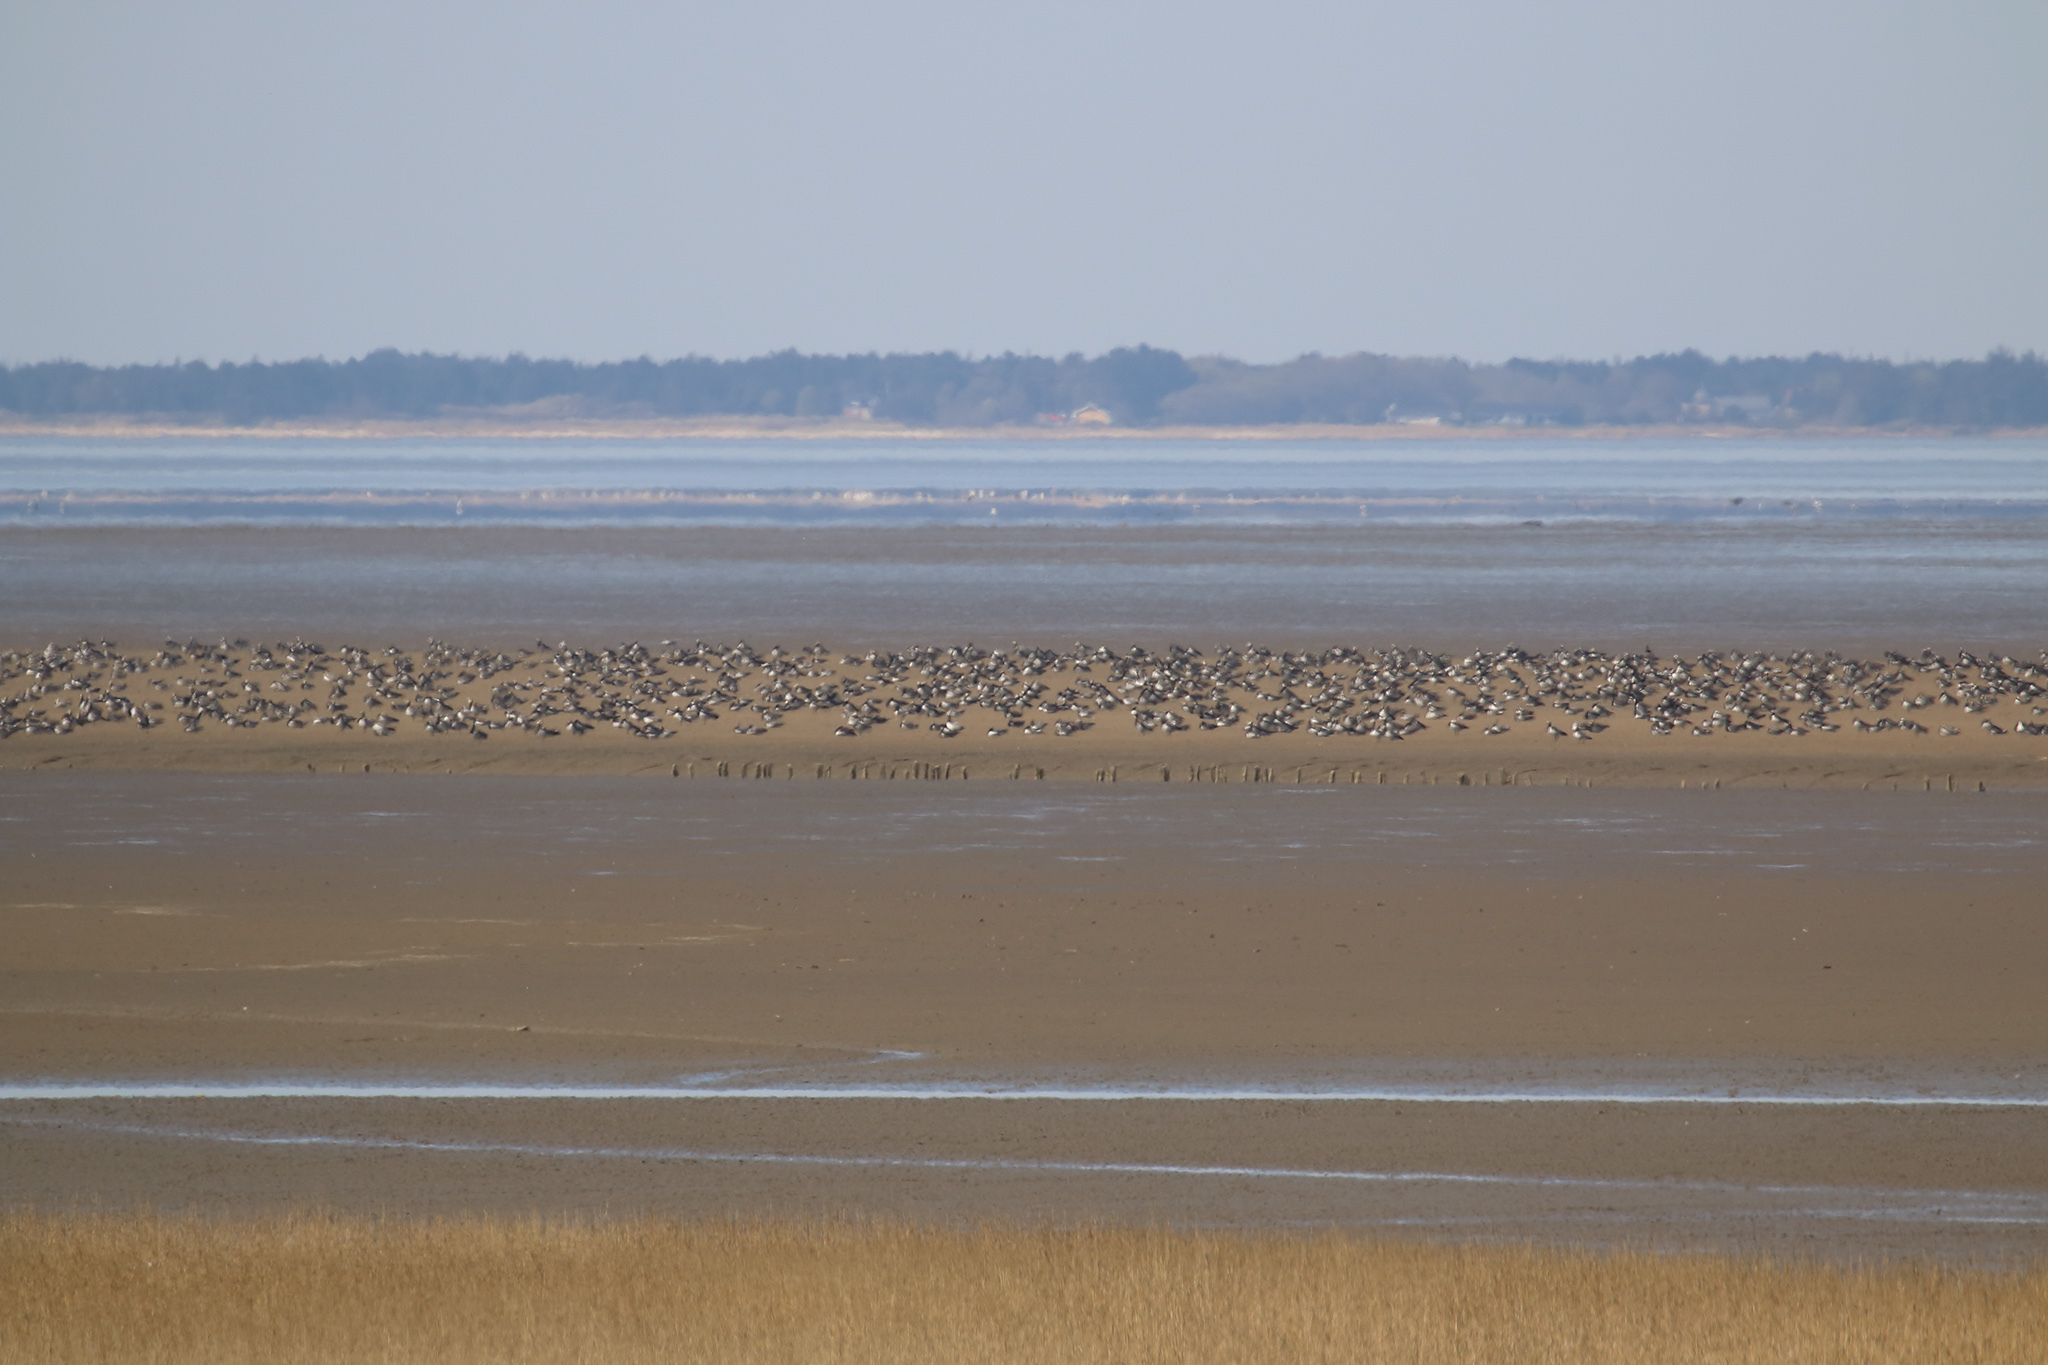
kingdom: Animalia
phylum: Chordata
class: Aves
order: Anseriformes
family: Anatidae
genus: Branta
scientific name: Branta leucopsis
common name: Barnacle goose
